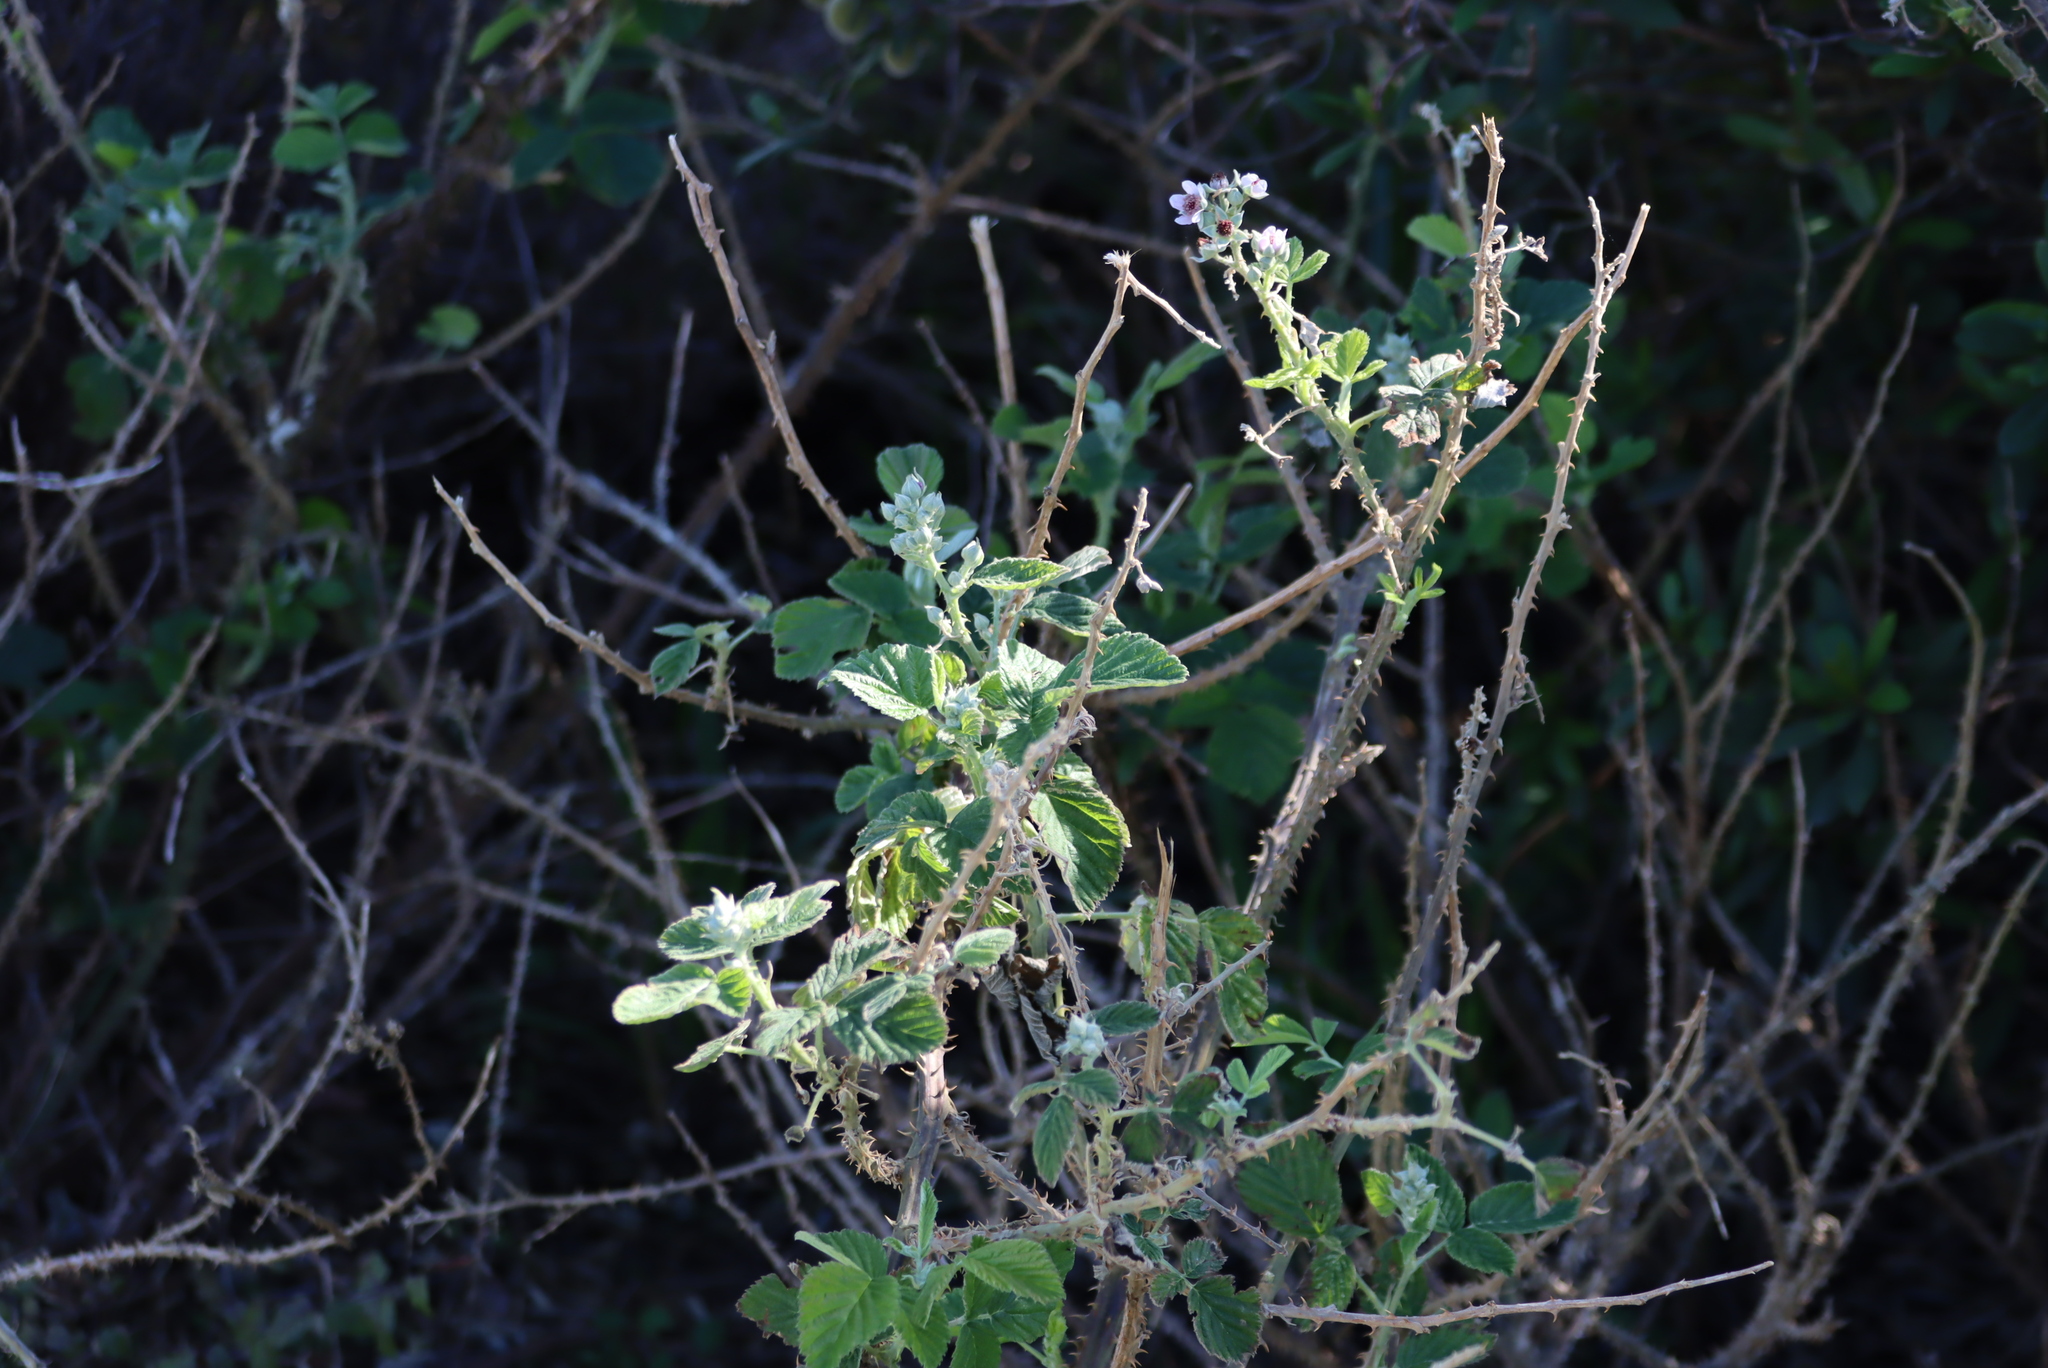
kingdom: Plantae
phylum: Tracheophyta
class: Magnoliopsida
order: Rosales
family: Rosaceae
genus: Rubus
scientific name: Rubus rigidus
